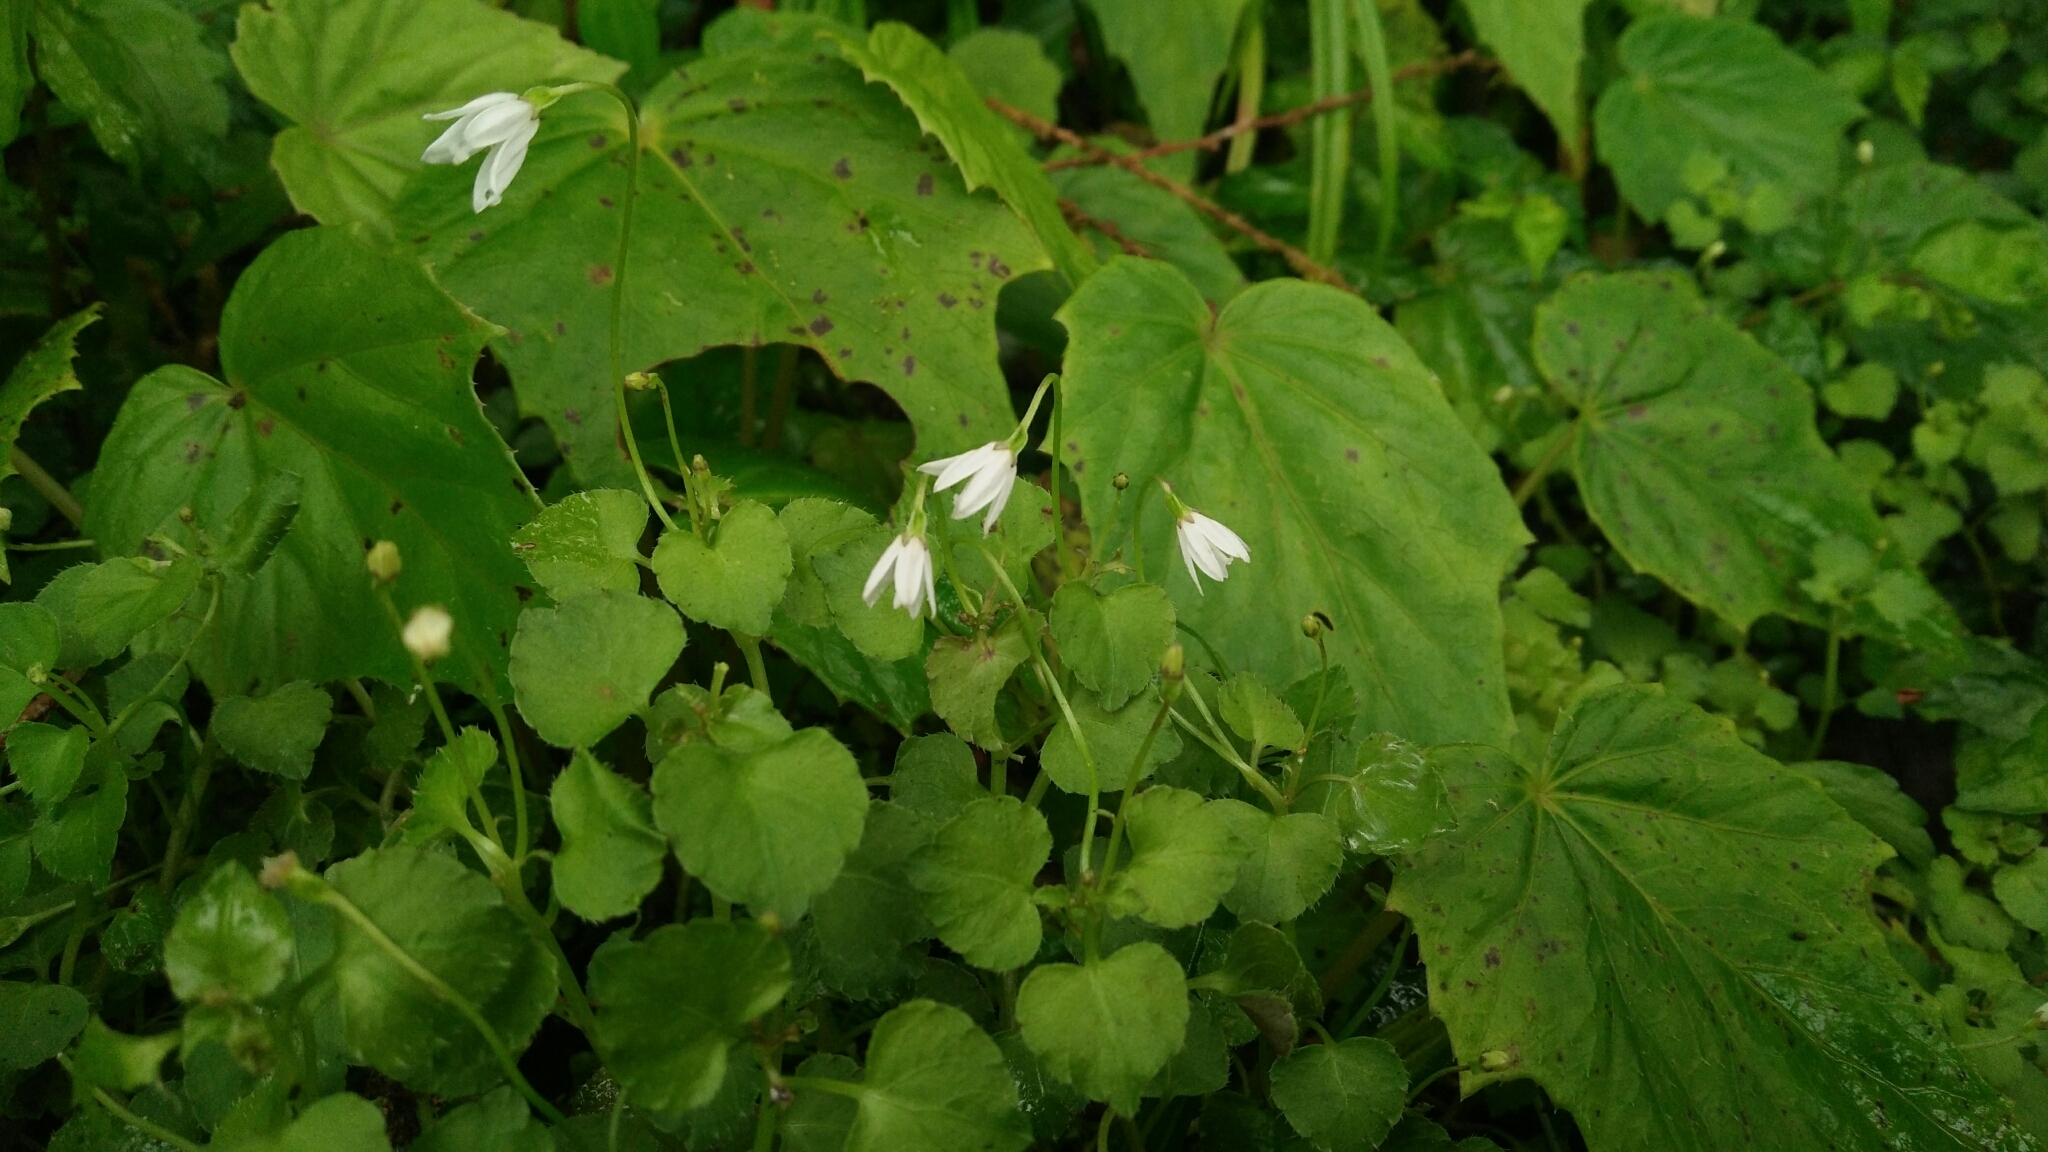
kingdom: Plantae
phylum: Tracheophyta
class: Magnoliopsida
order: Asterales
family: Campanulaceae
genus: Peracarpa
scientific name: Peracarpa carnosa
